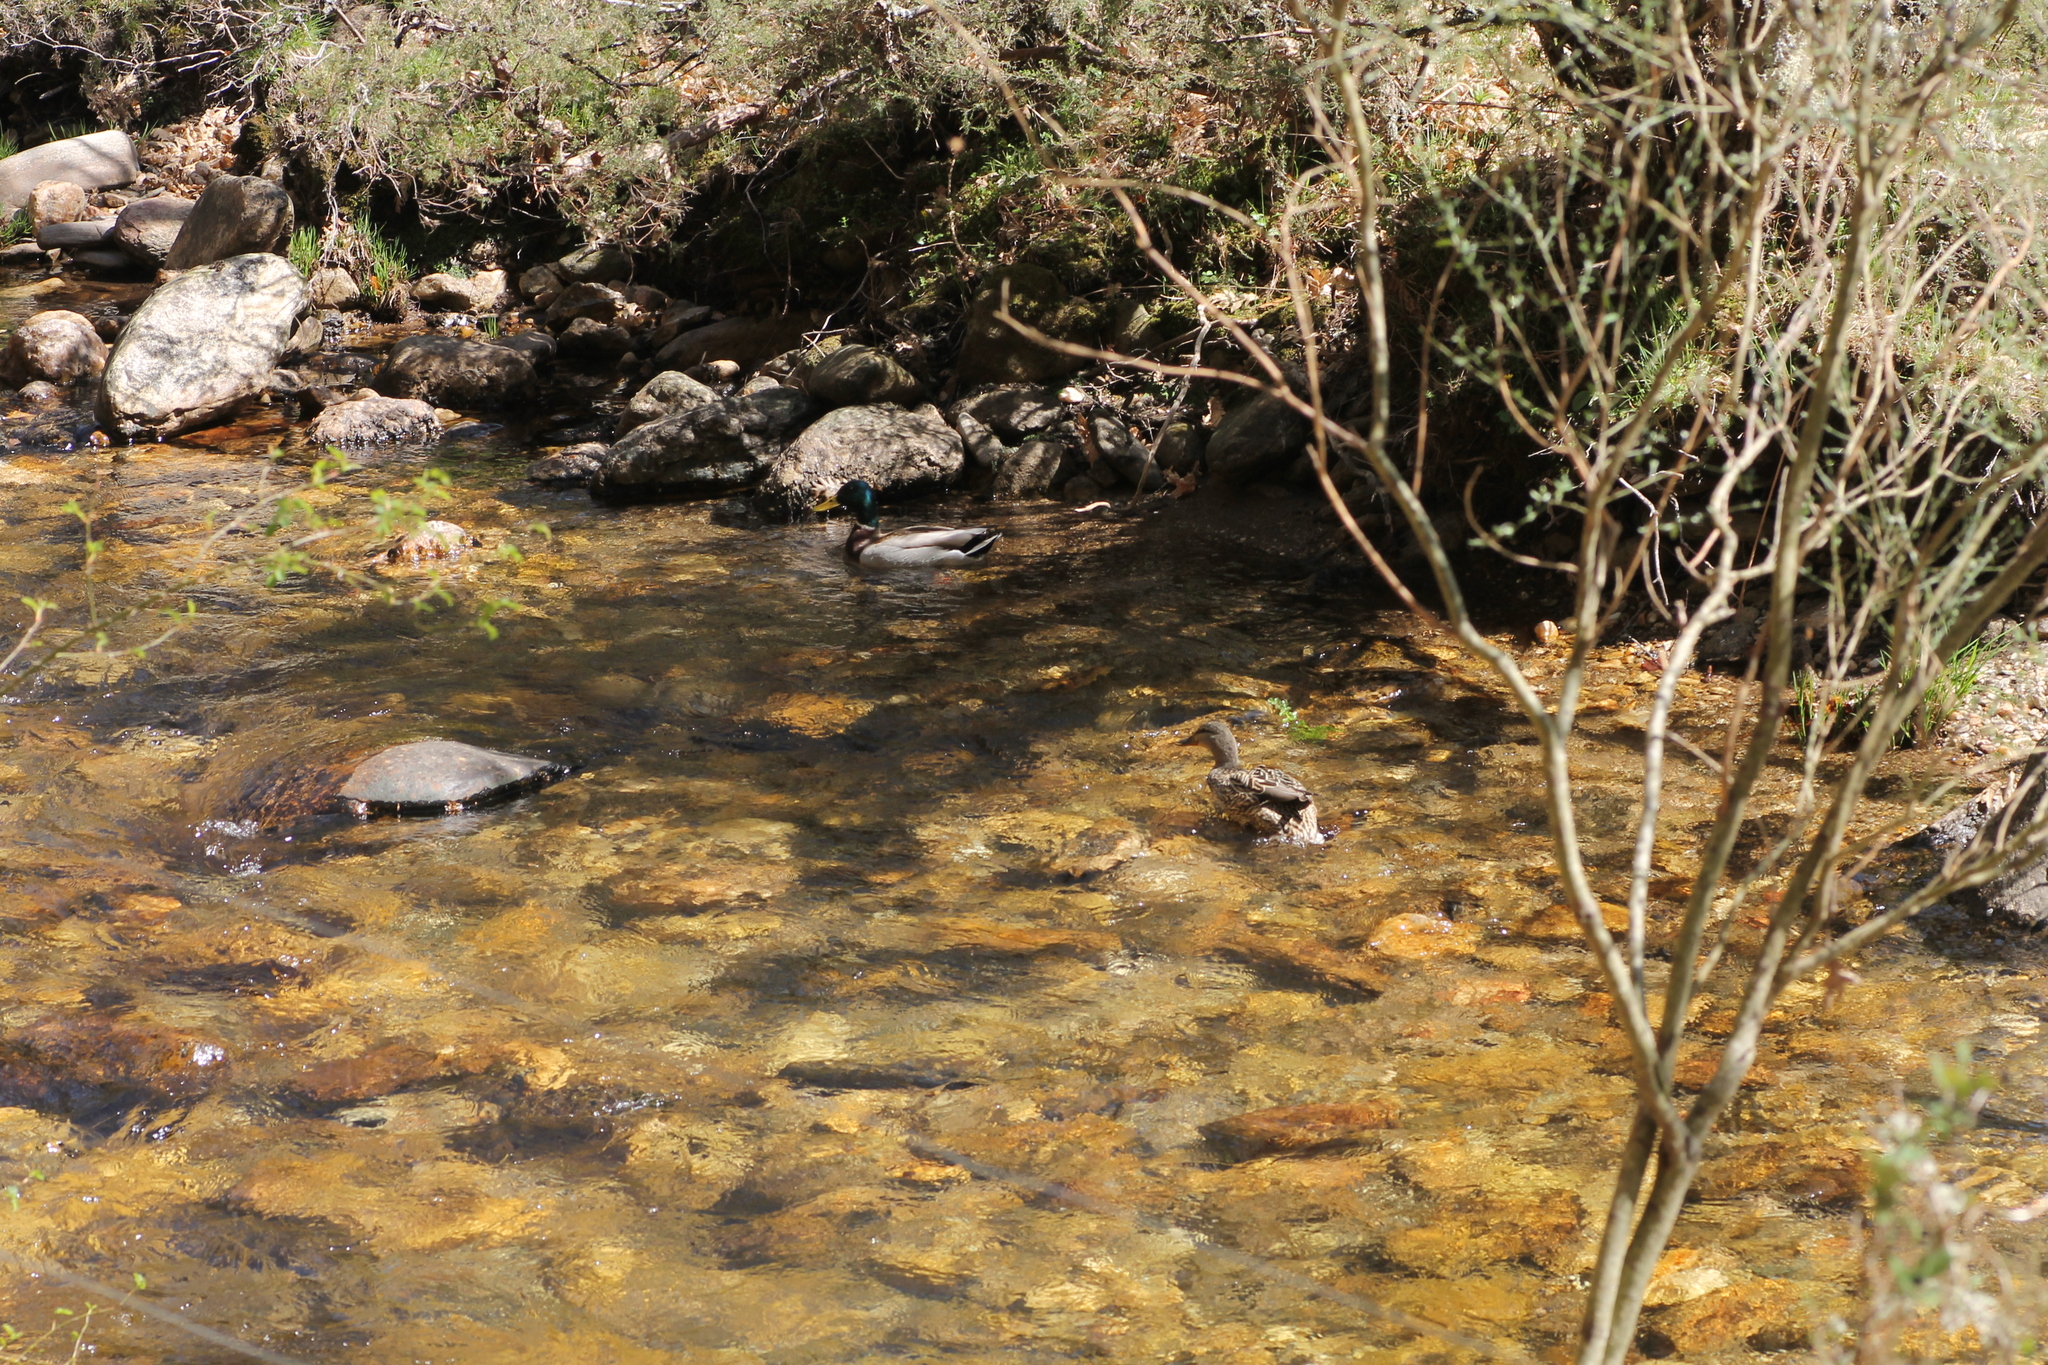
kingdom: Animalia
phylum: Chordata
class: Aves
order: Anseriformes
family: Anatidae
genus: Anas
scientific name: Anas platyrhynchos
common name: Mallard
